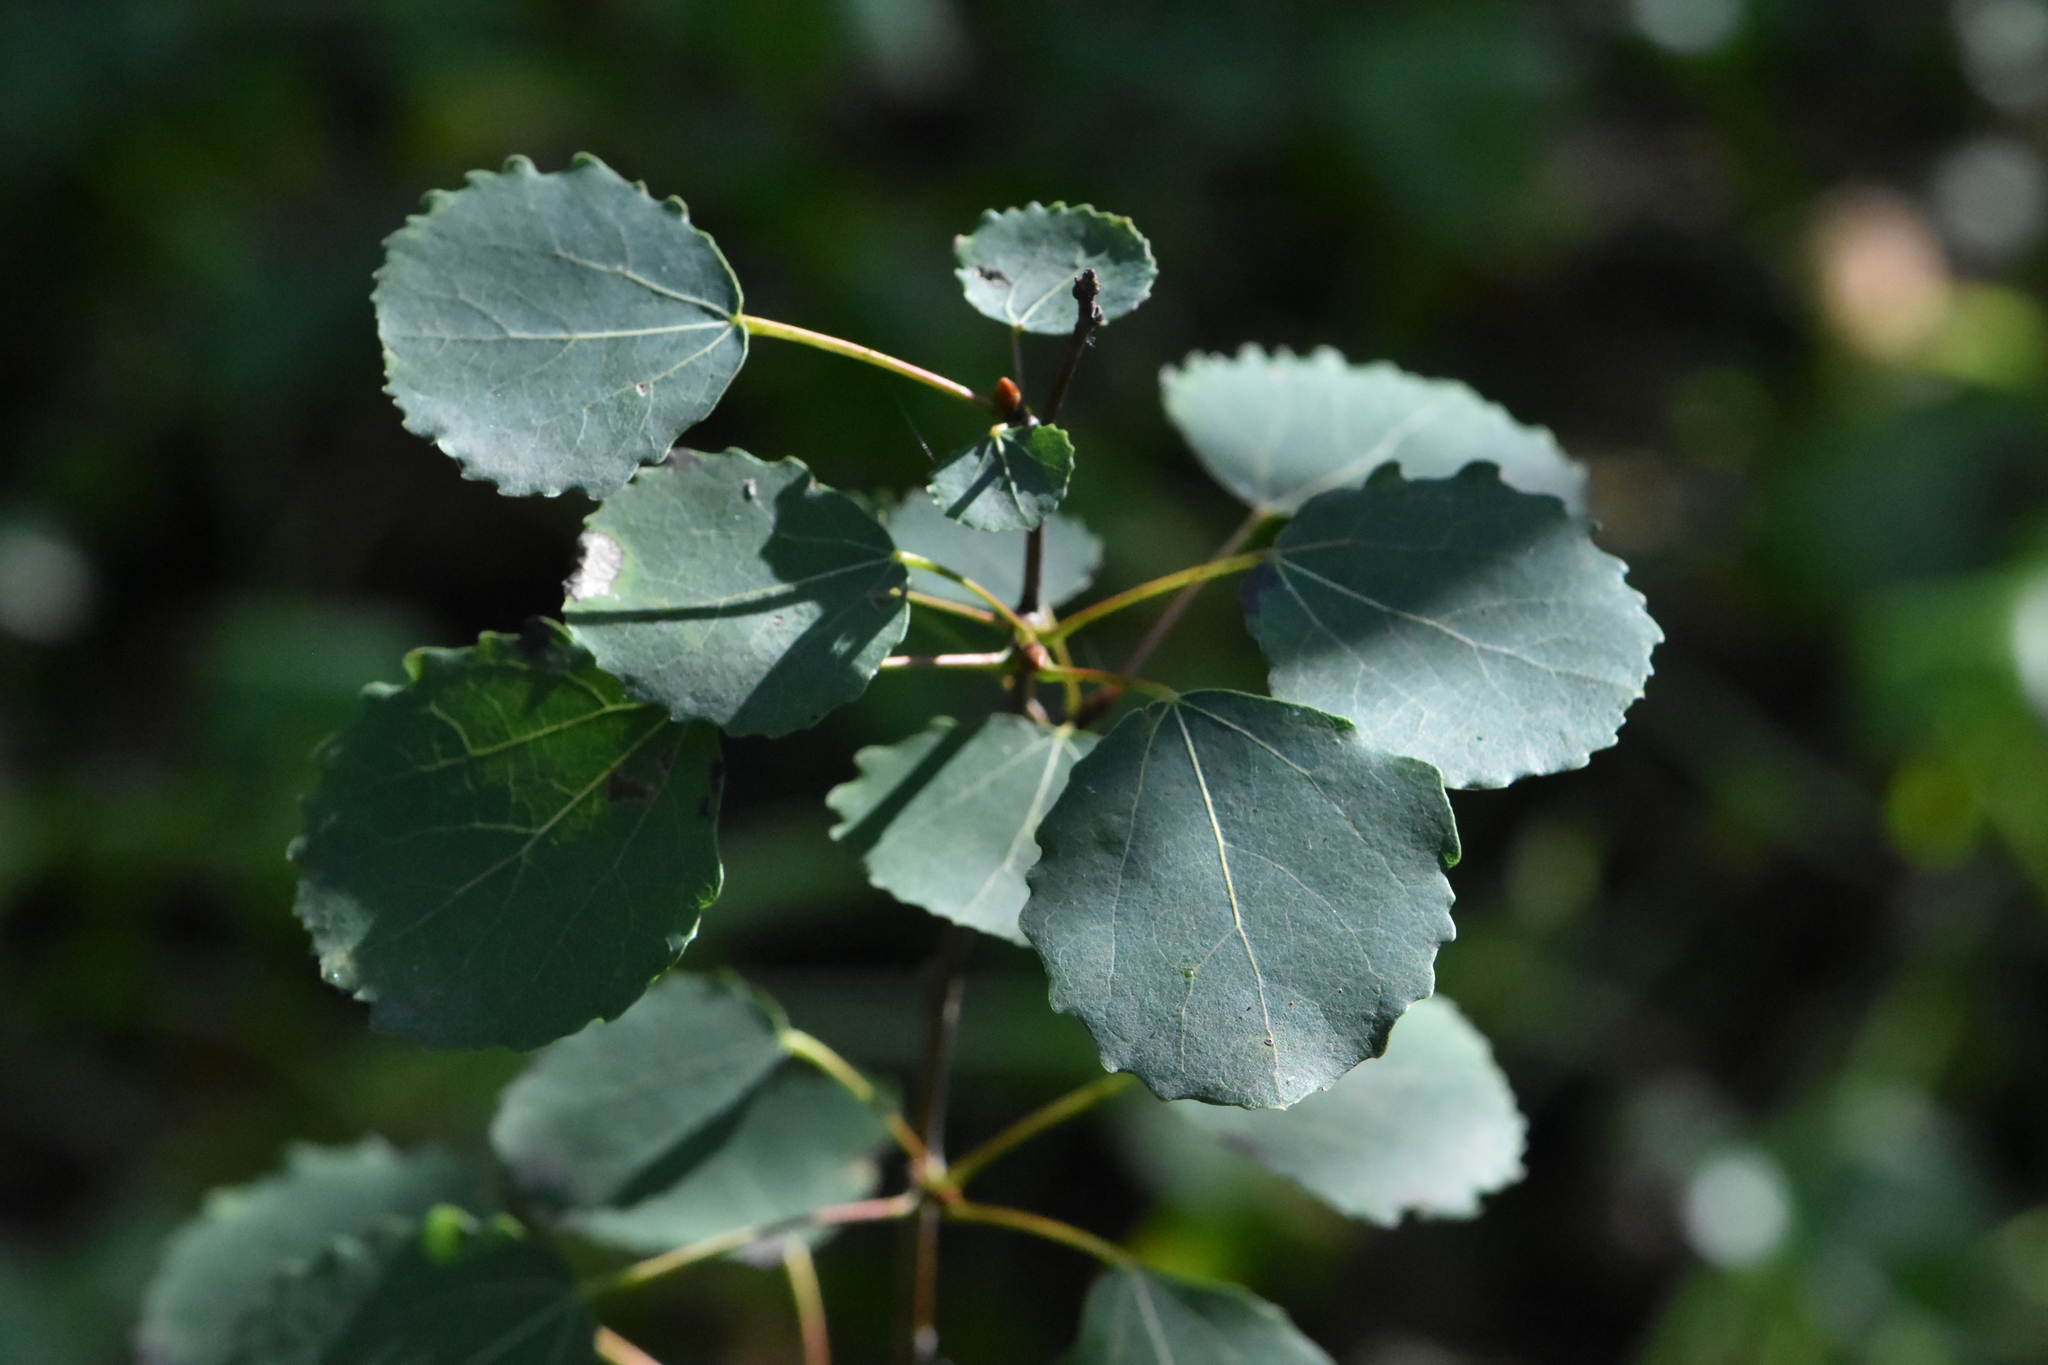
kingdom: Plantae
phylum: Tracheophyta
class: Magnoliopsida
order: Malpighiales
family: Salicaceae
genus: Populus
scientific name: Populus tremula
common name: European aspen
